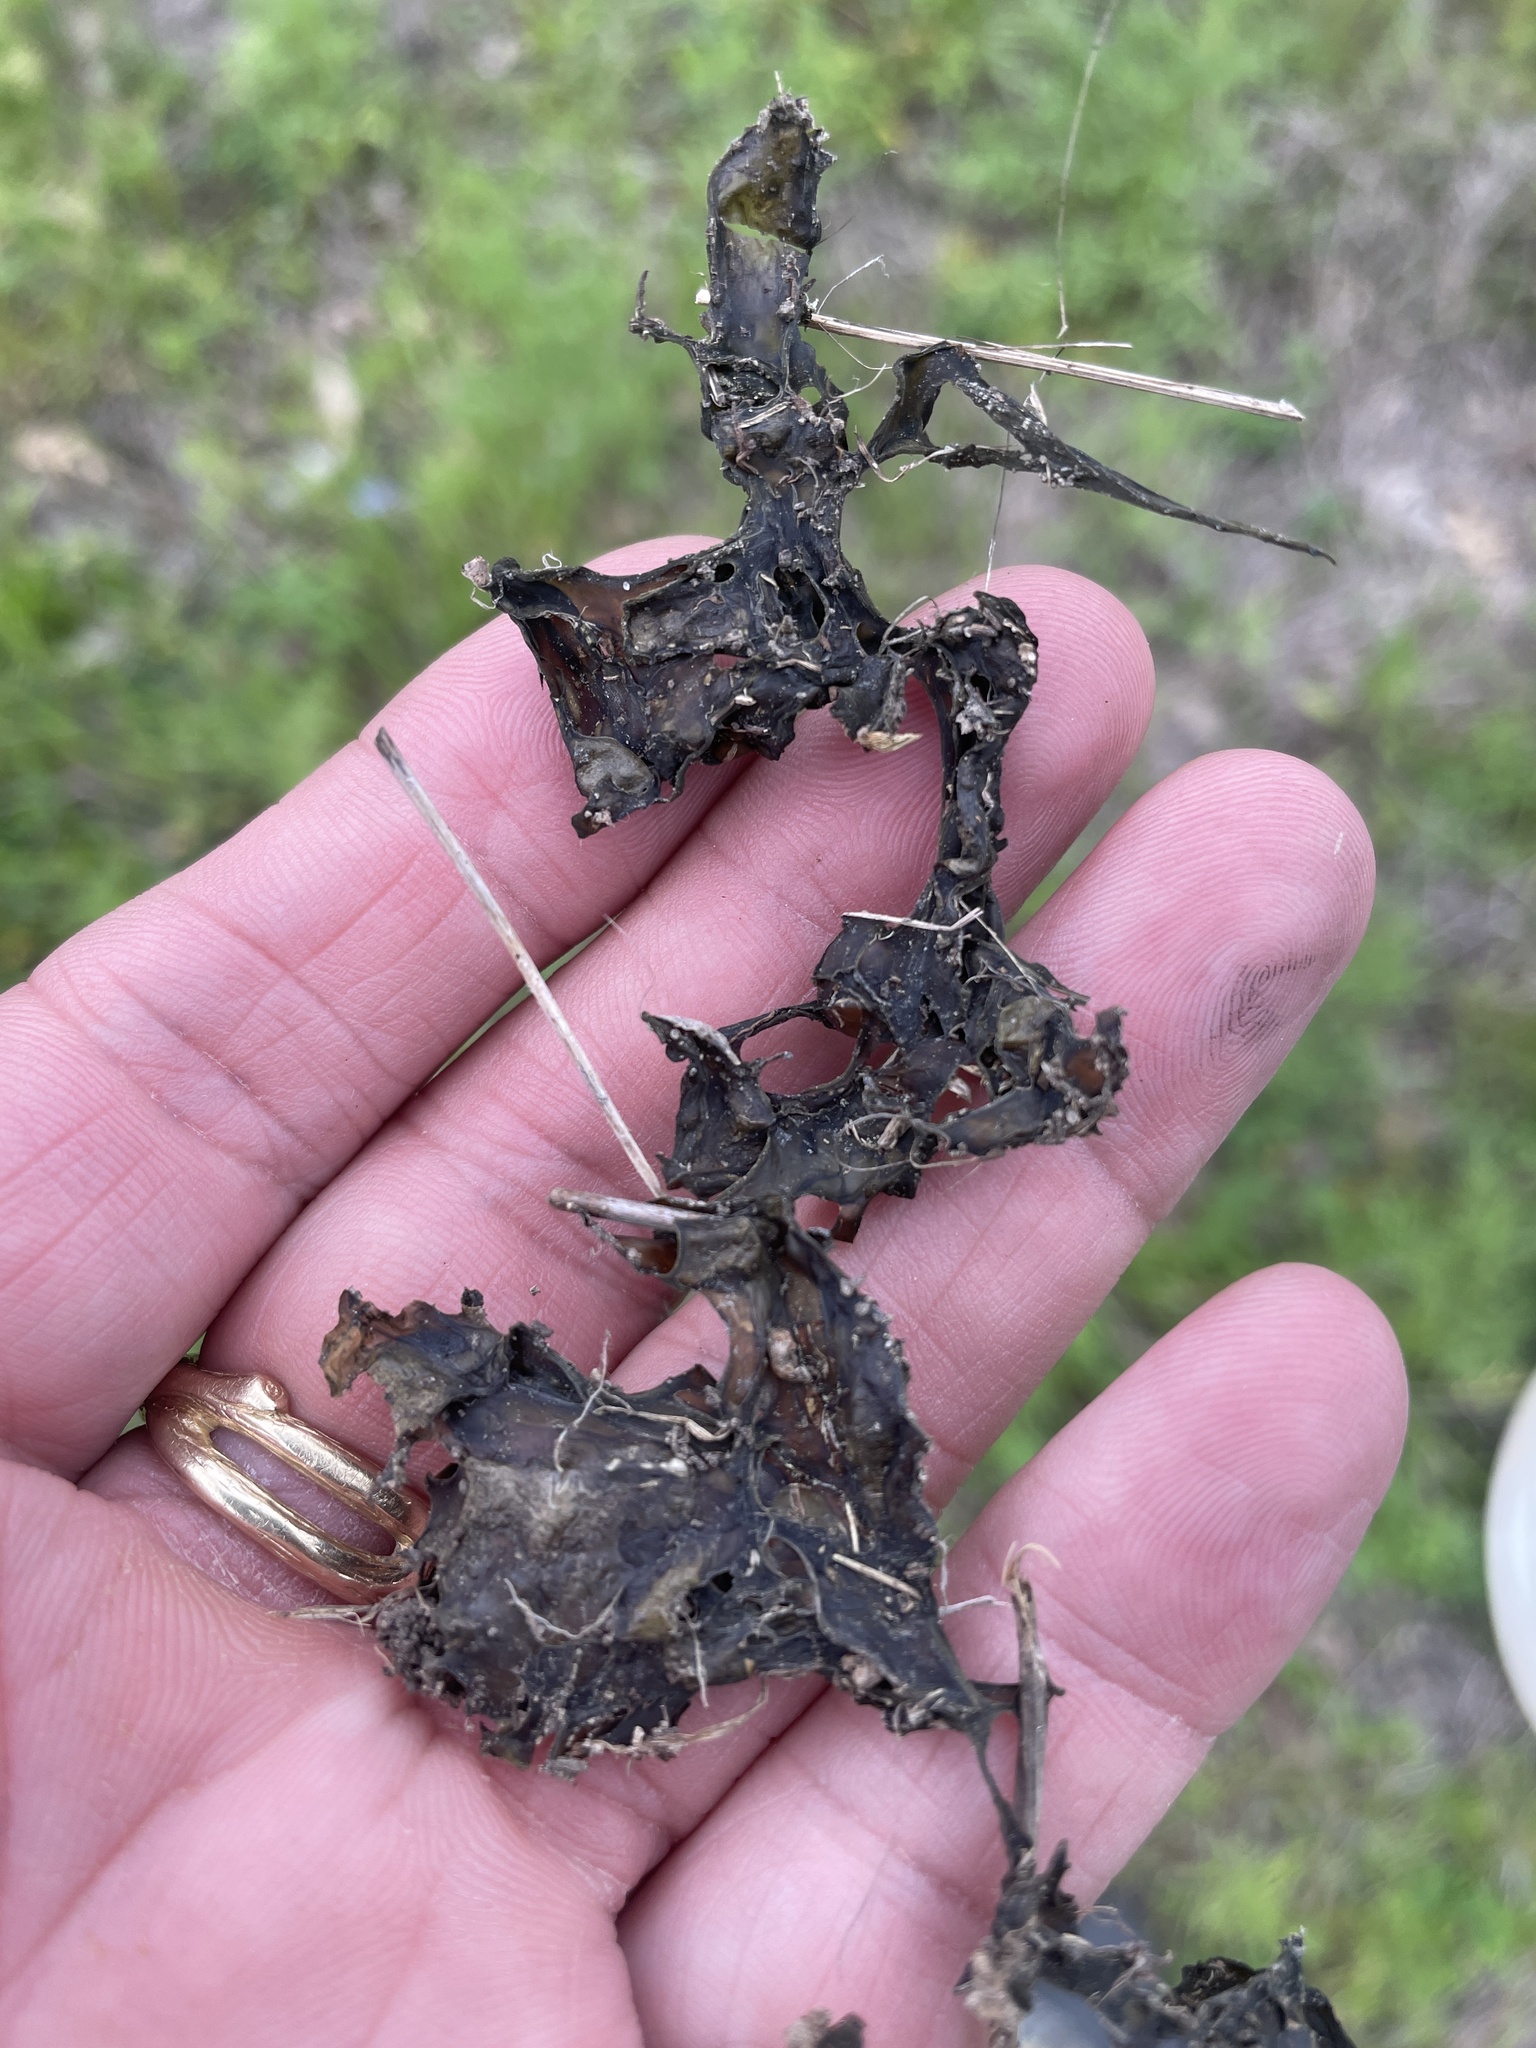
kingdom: Bacteria
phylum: Cyanobacteria
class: Cyanobacteriia
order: Cyanobacteriales
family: Nostocaceae
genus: Nostoc
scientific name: Nostoc commune
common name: Star jelly
